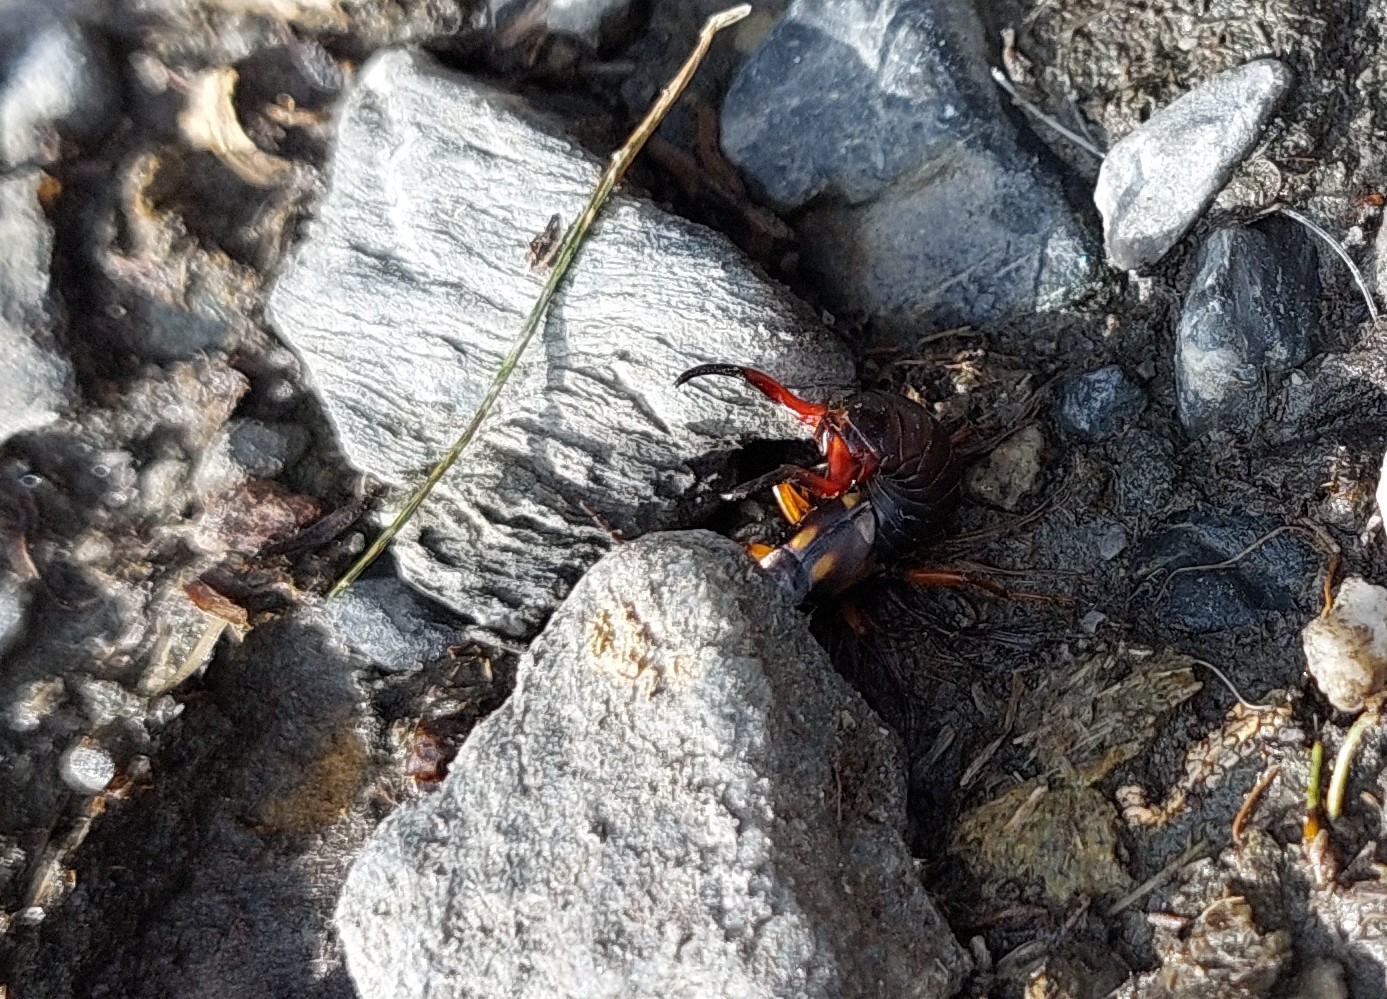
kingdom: Animalia
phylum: Arthropoda
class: Insecta
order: Dermaptera
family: Forficulidae
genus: Anechura
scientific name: Anechura bipunctata
